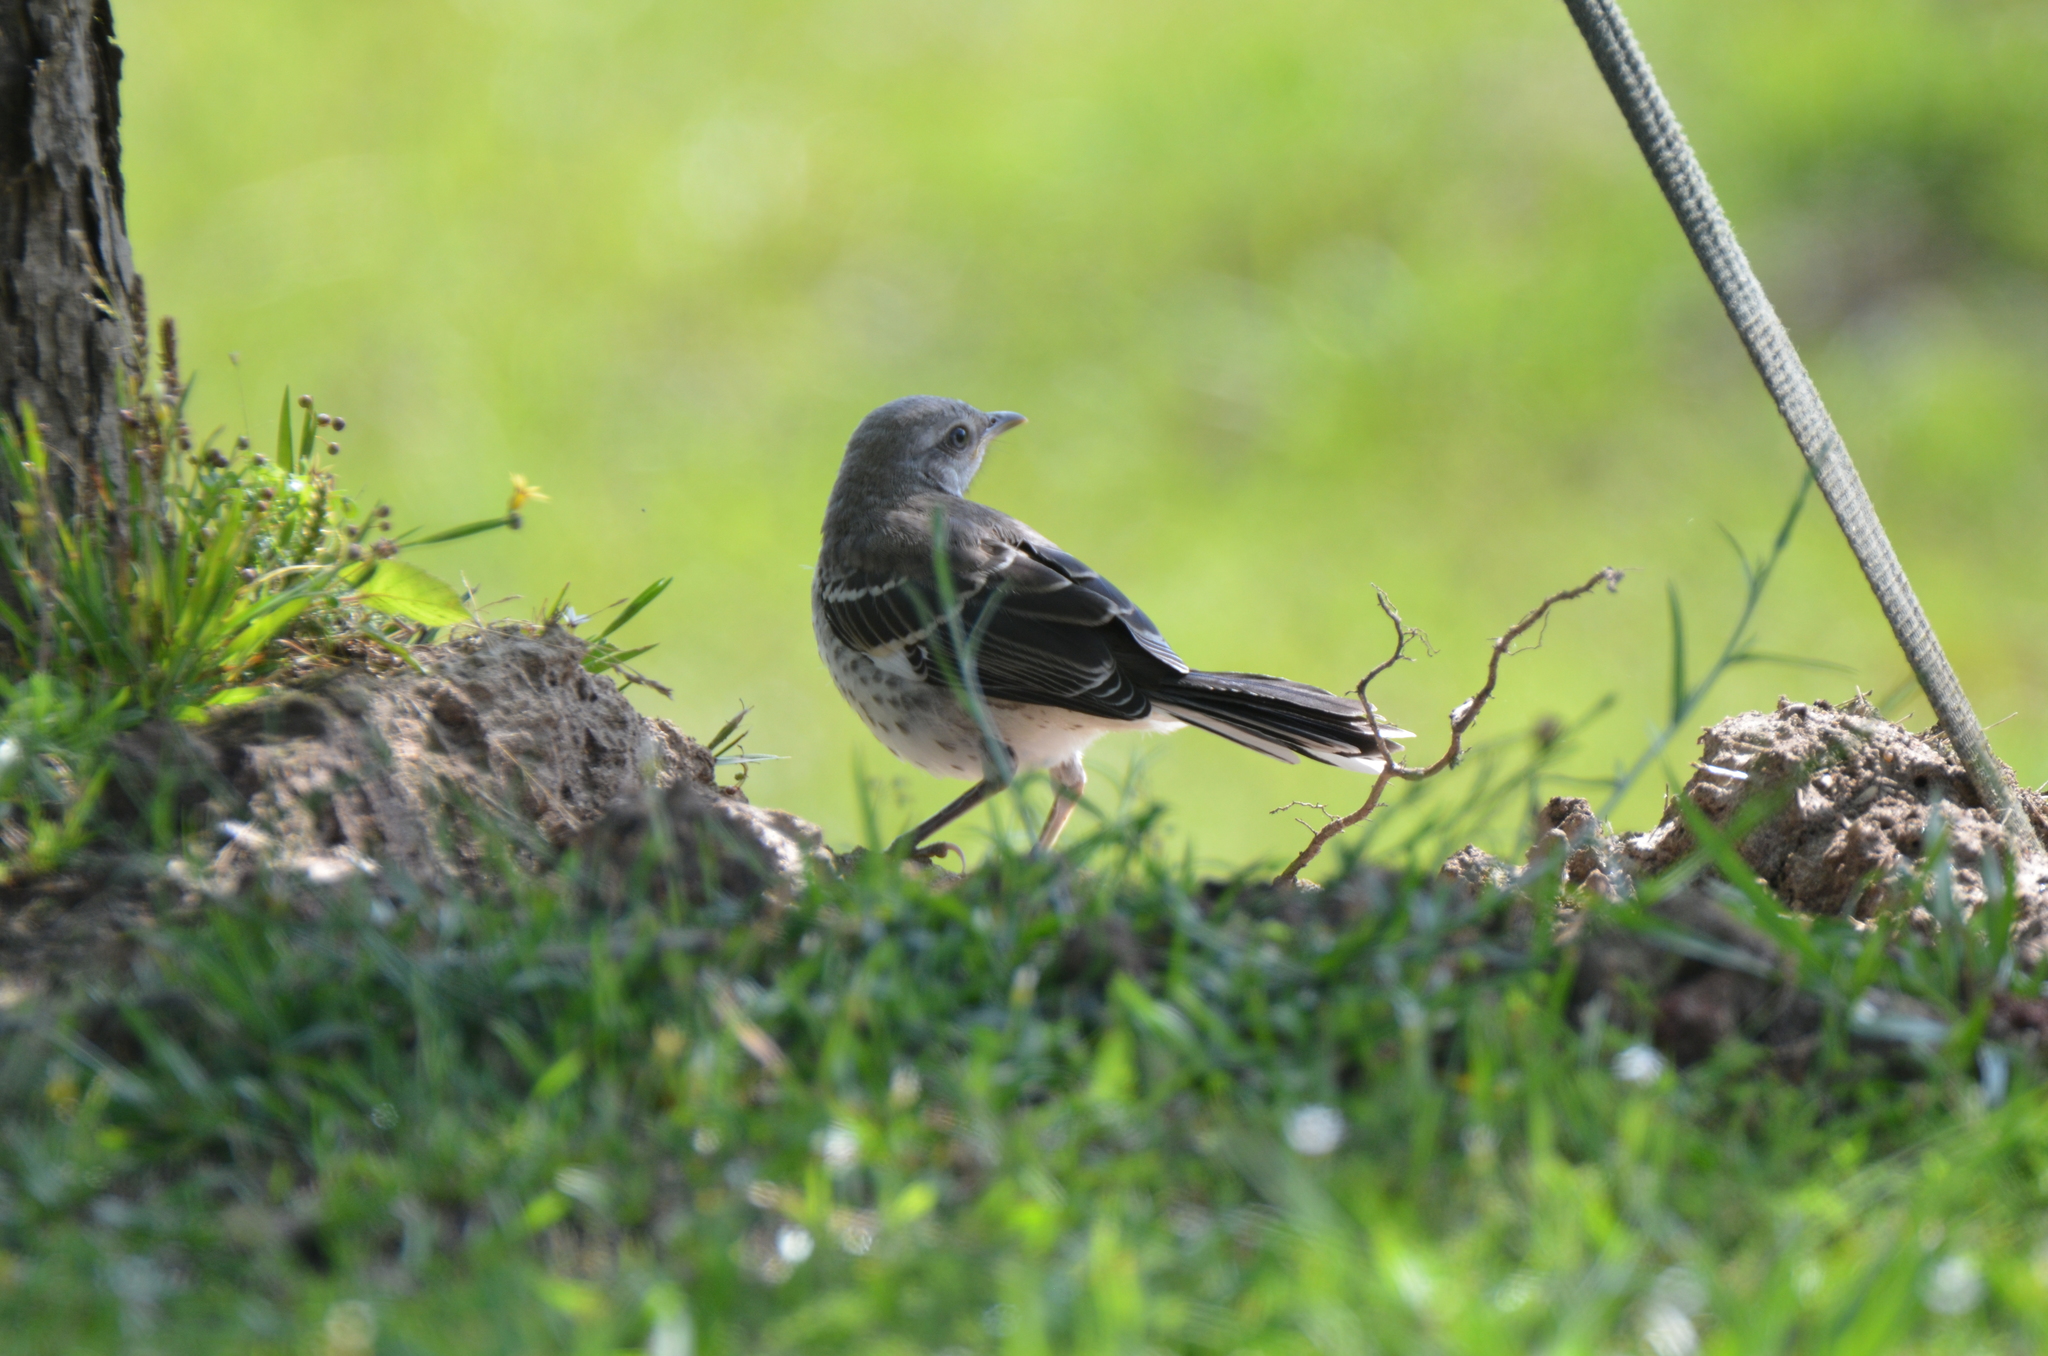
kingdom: Animalia
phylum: Chordata
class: Aves
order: Passeriformes
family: Mimidae
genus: Mimus
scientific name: Mimus polyglottos
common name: Northern mockingbird
